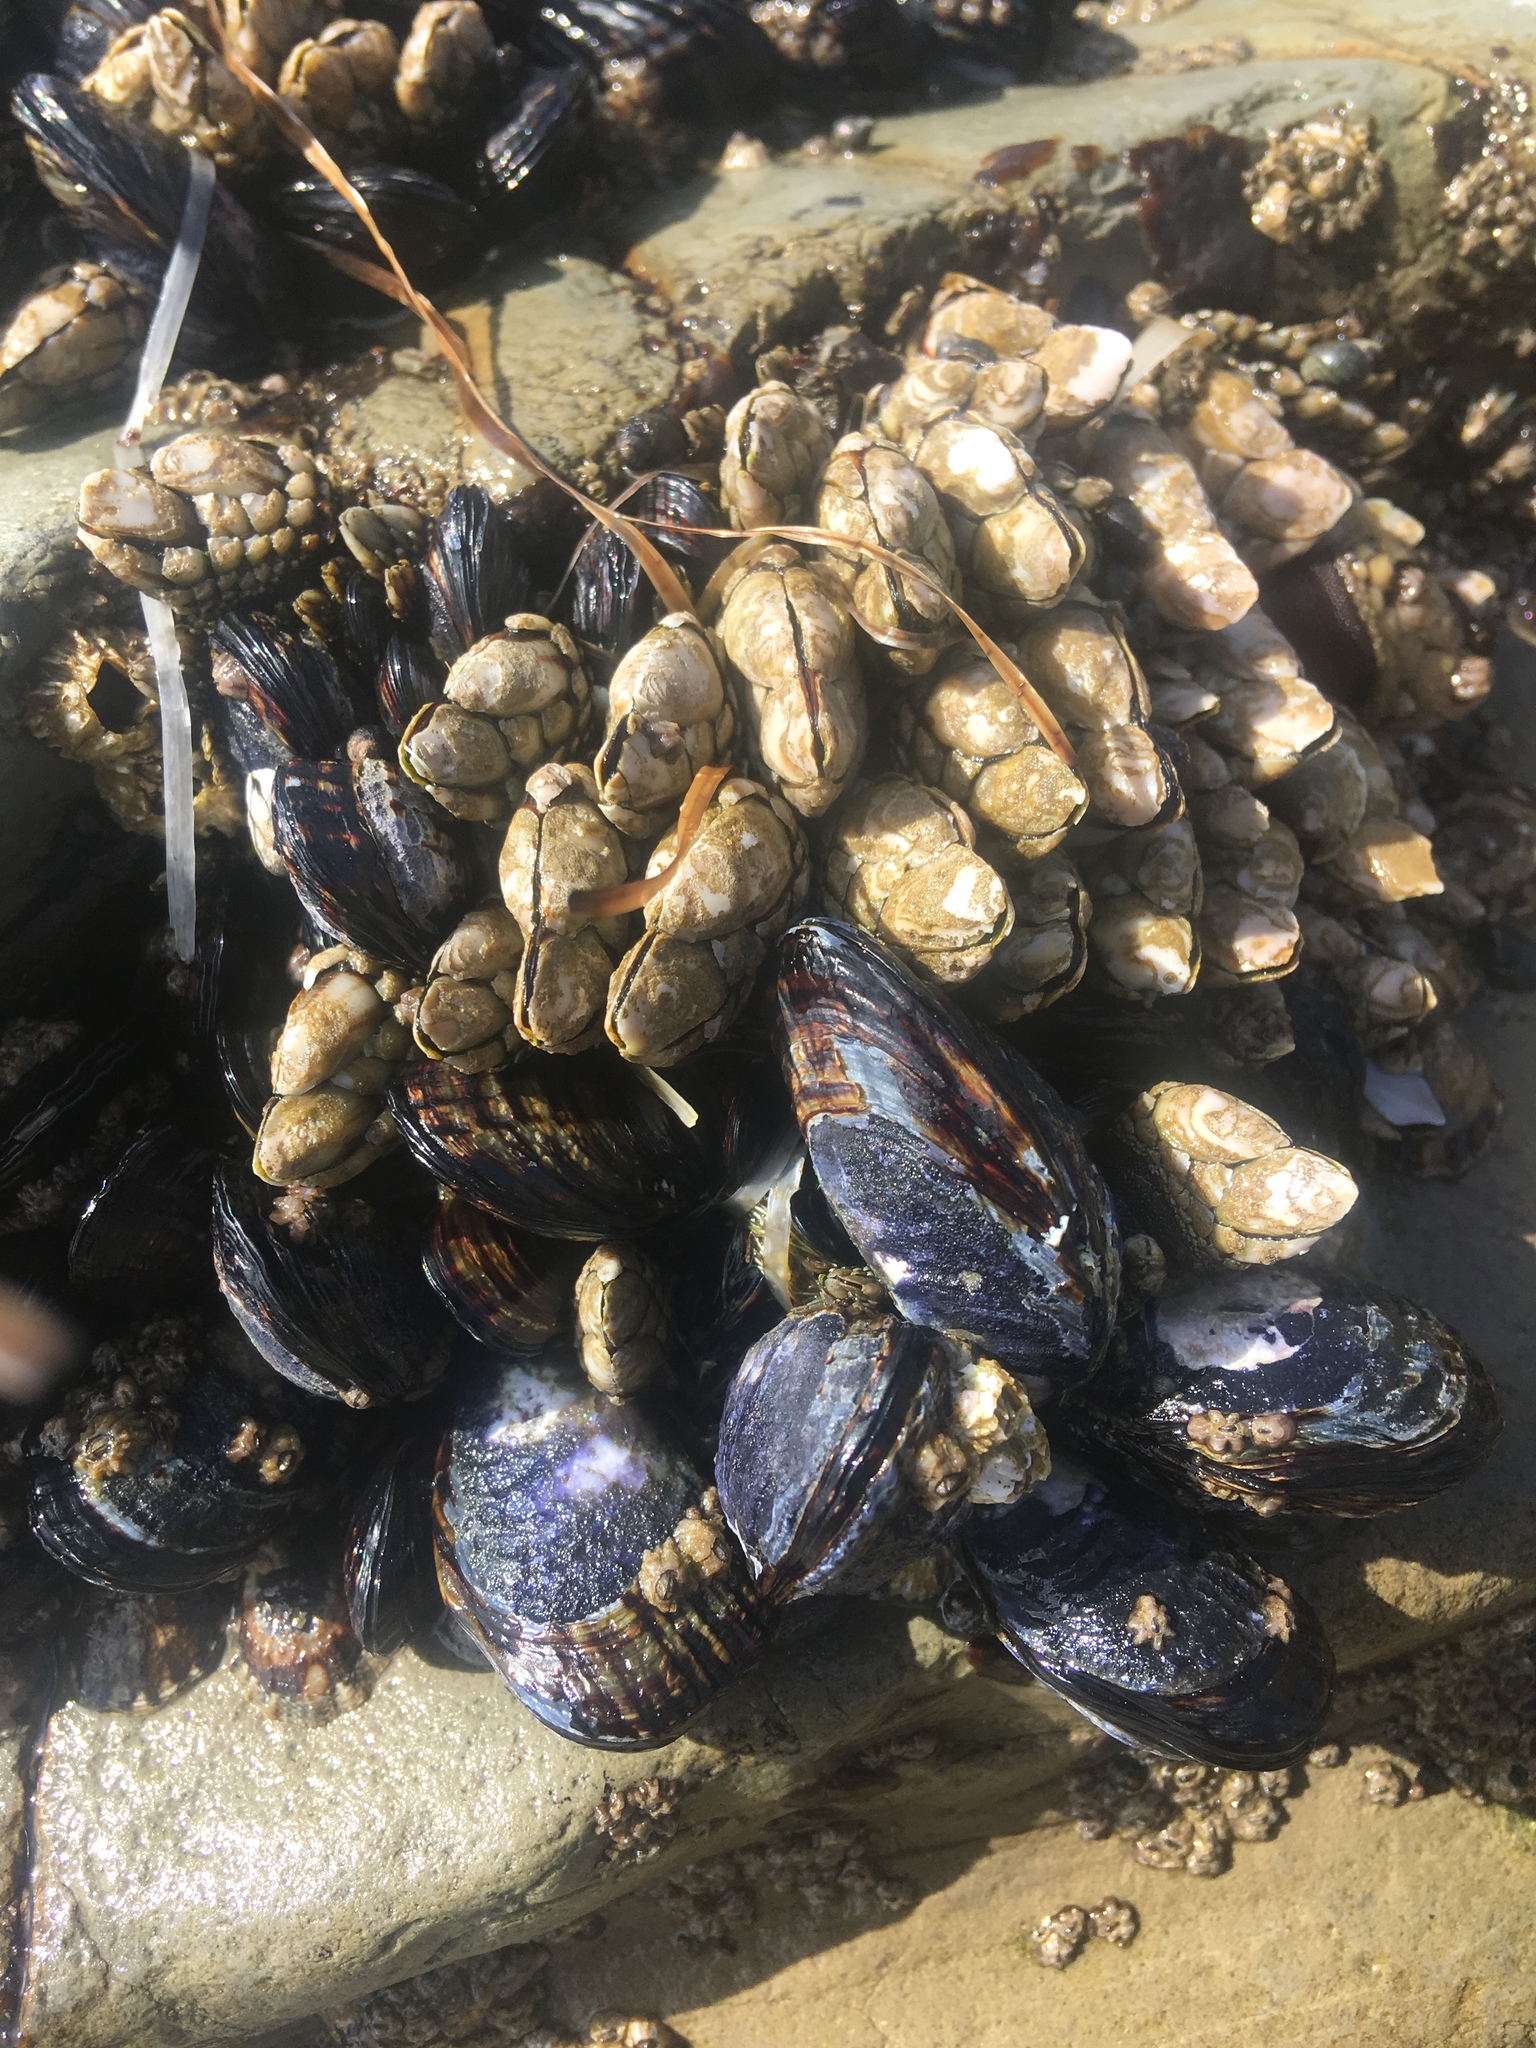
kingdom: Animalia
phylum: Mollusca
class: Bivalvia
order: Mytilida
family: Mytilidae
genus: Mytilus
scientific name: Mytilus californianus
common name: California mussel
